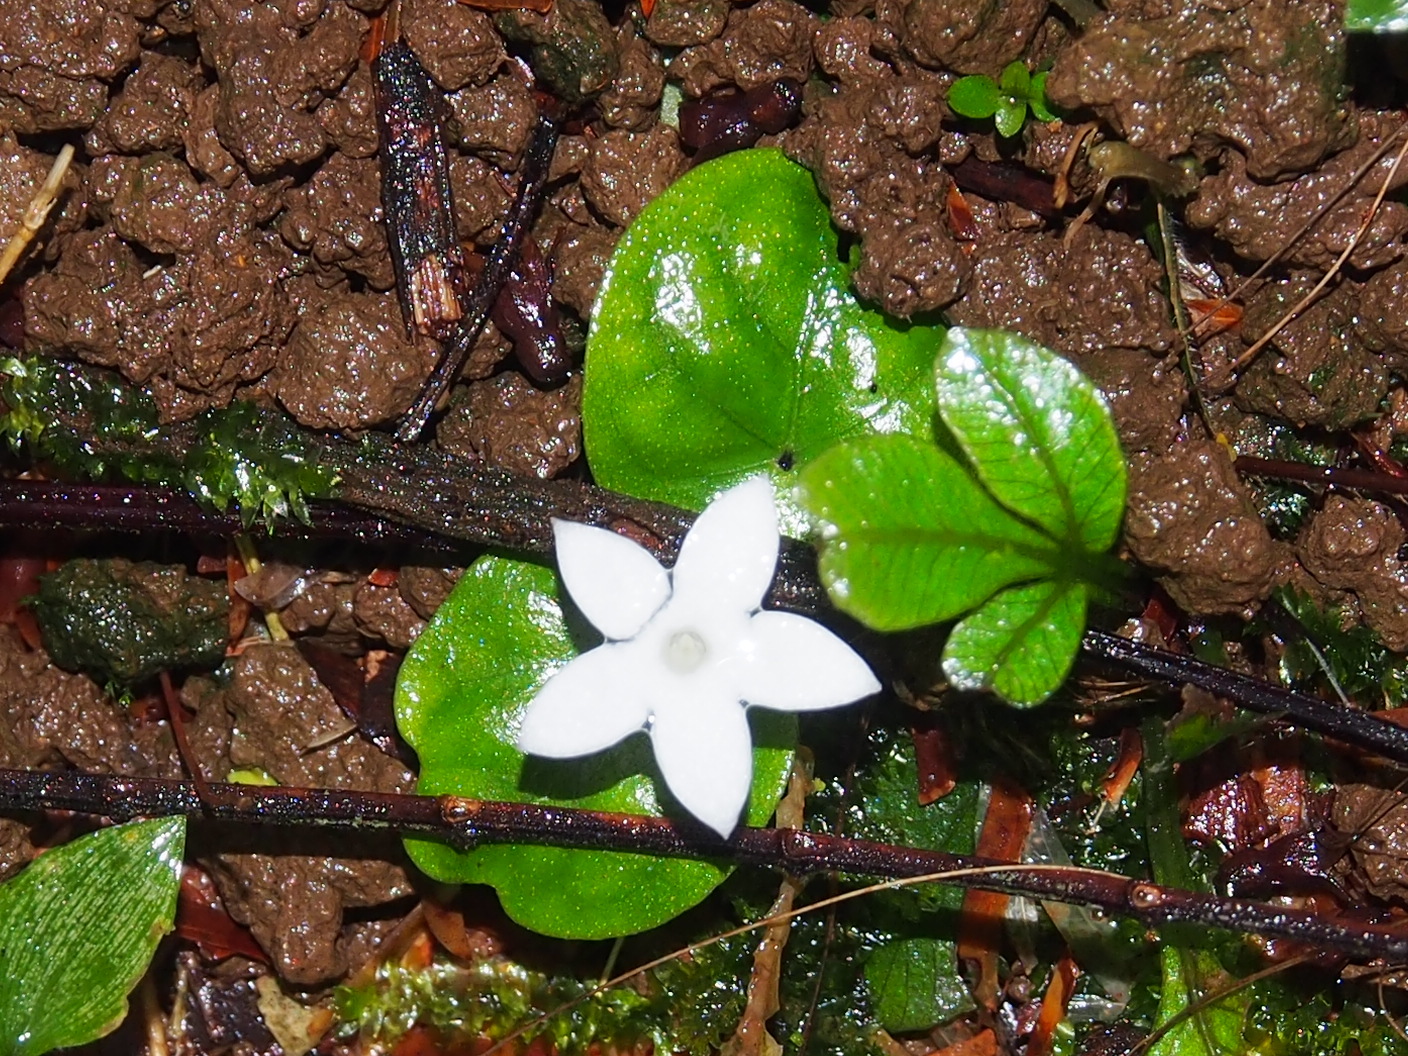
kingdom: Plantae
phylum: Tracheophyta
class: Magnoliopsida
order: Gentianales
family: Rubiaceae
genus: Geophila
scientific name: Geophila repens
